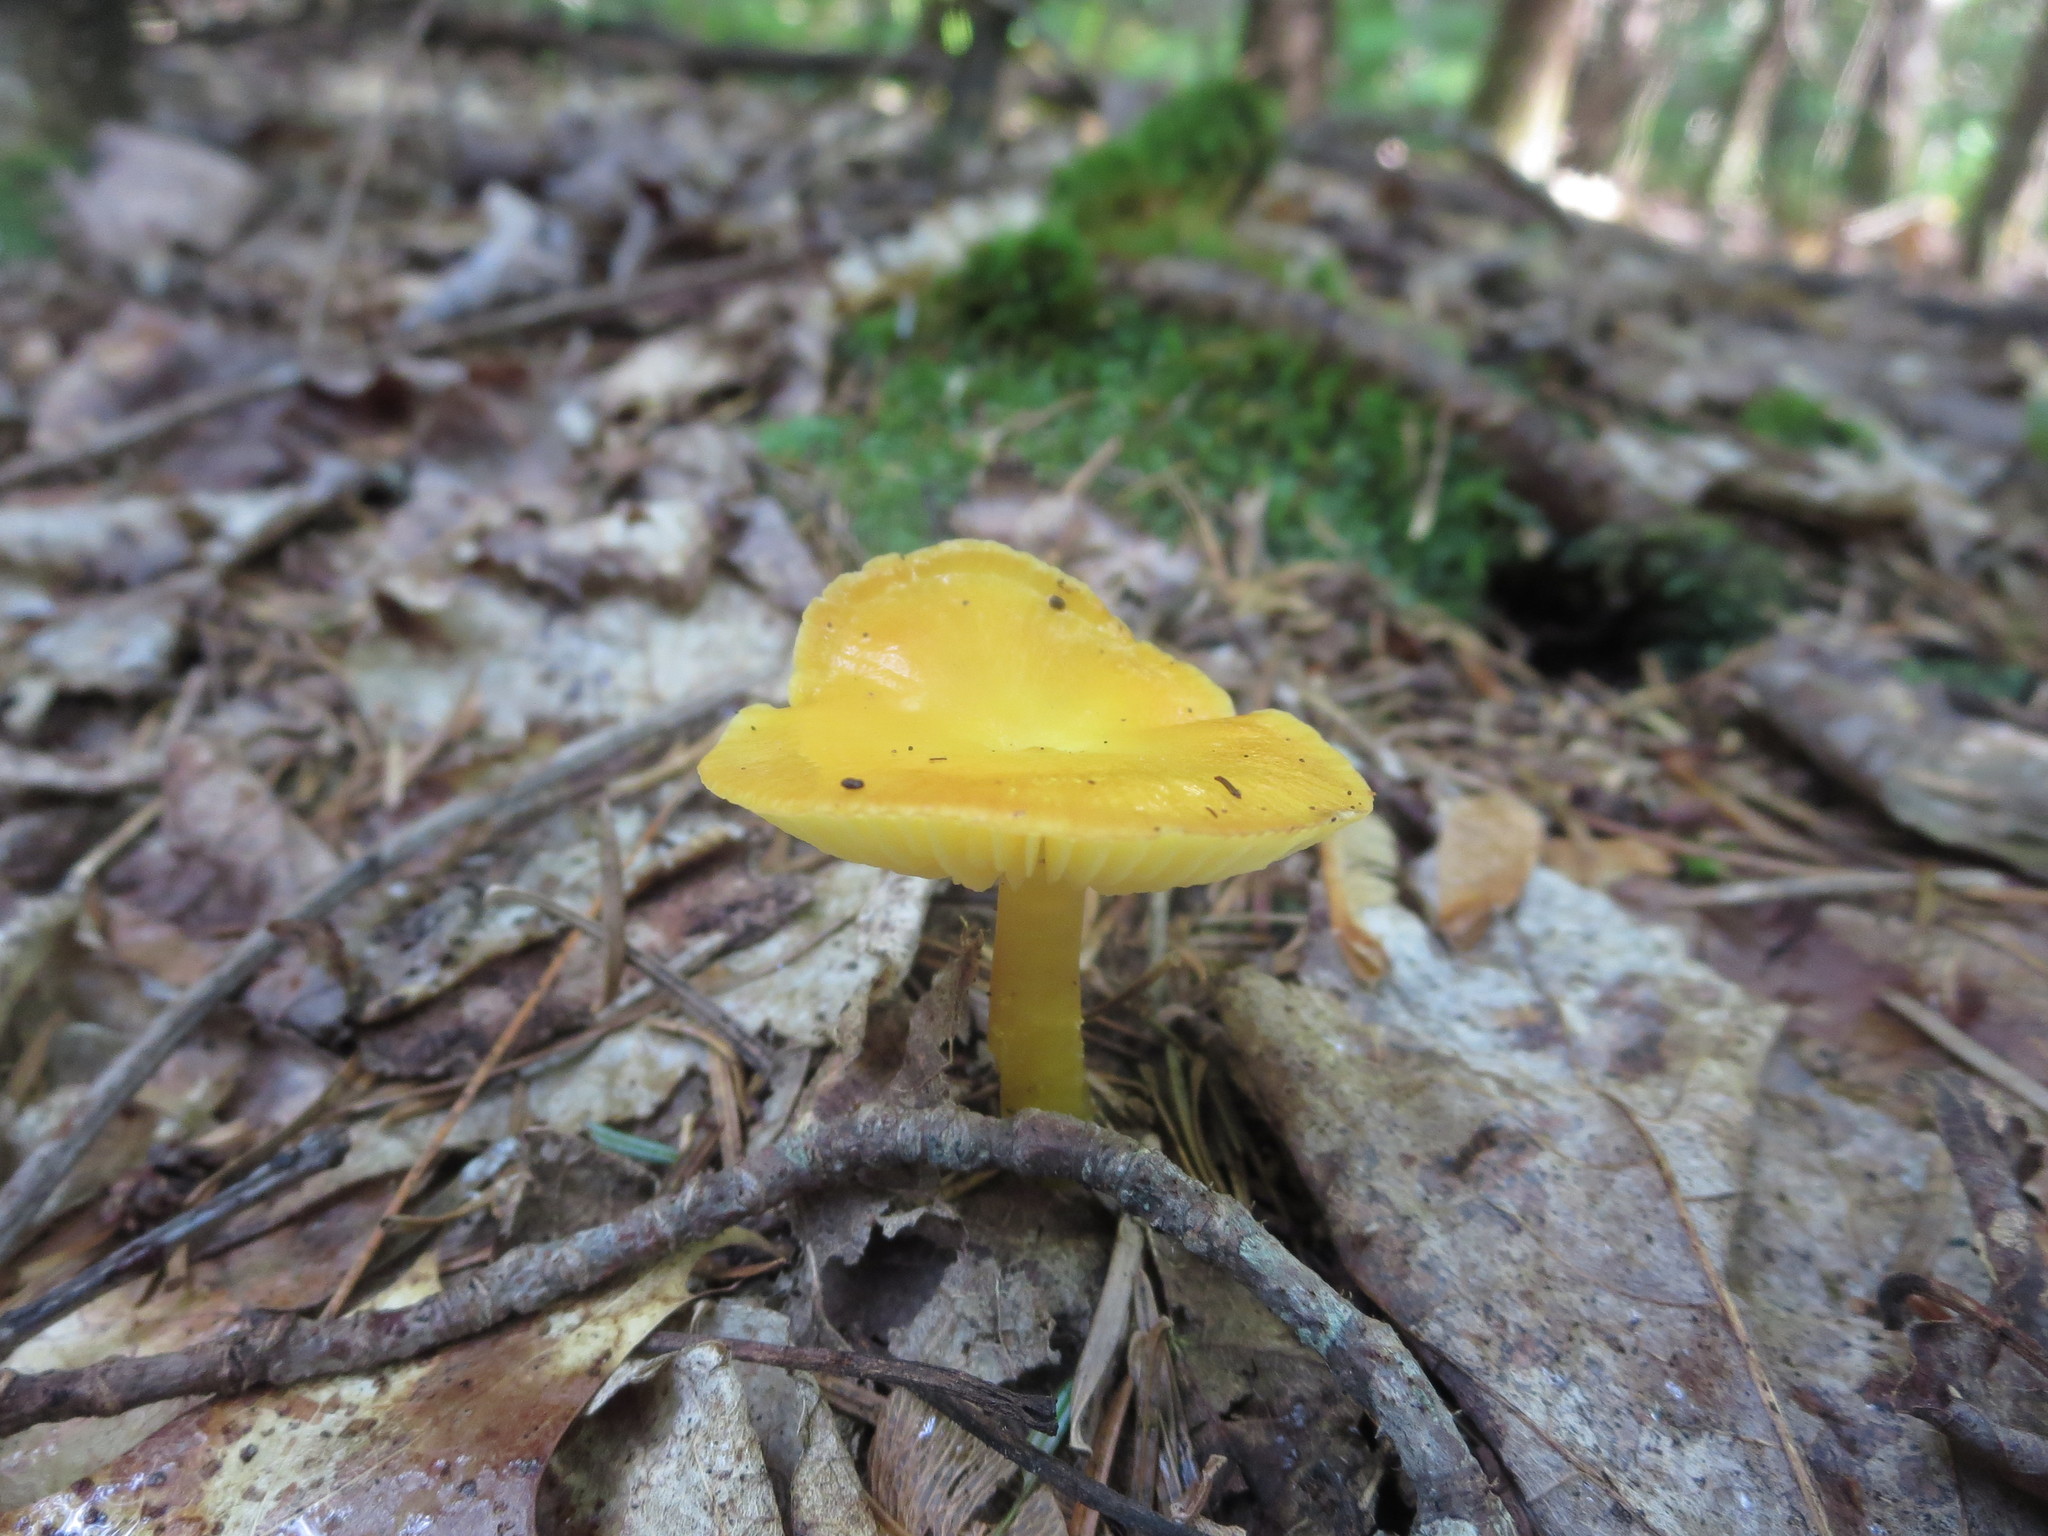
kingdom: Fungi
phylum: Basidiomycota
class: Agaricomycetes
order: Agaricales
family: Hygrophoraceae
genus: Hygrocybe
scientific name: Hygrocybe flavescens
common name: Golden waxy cap
